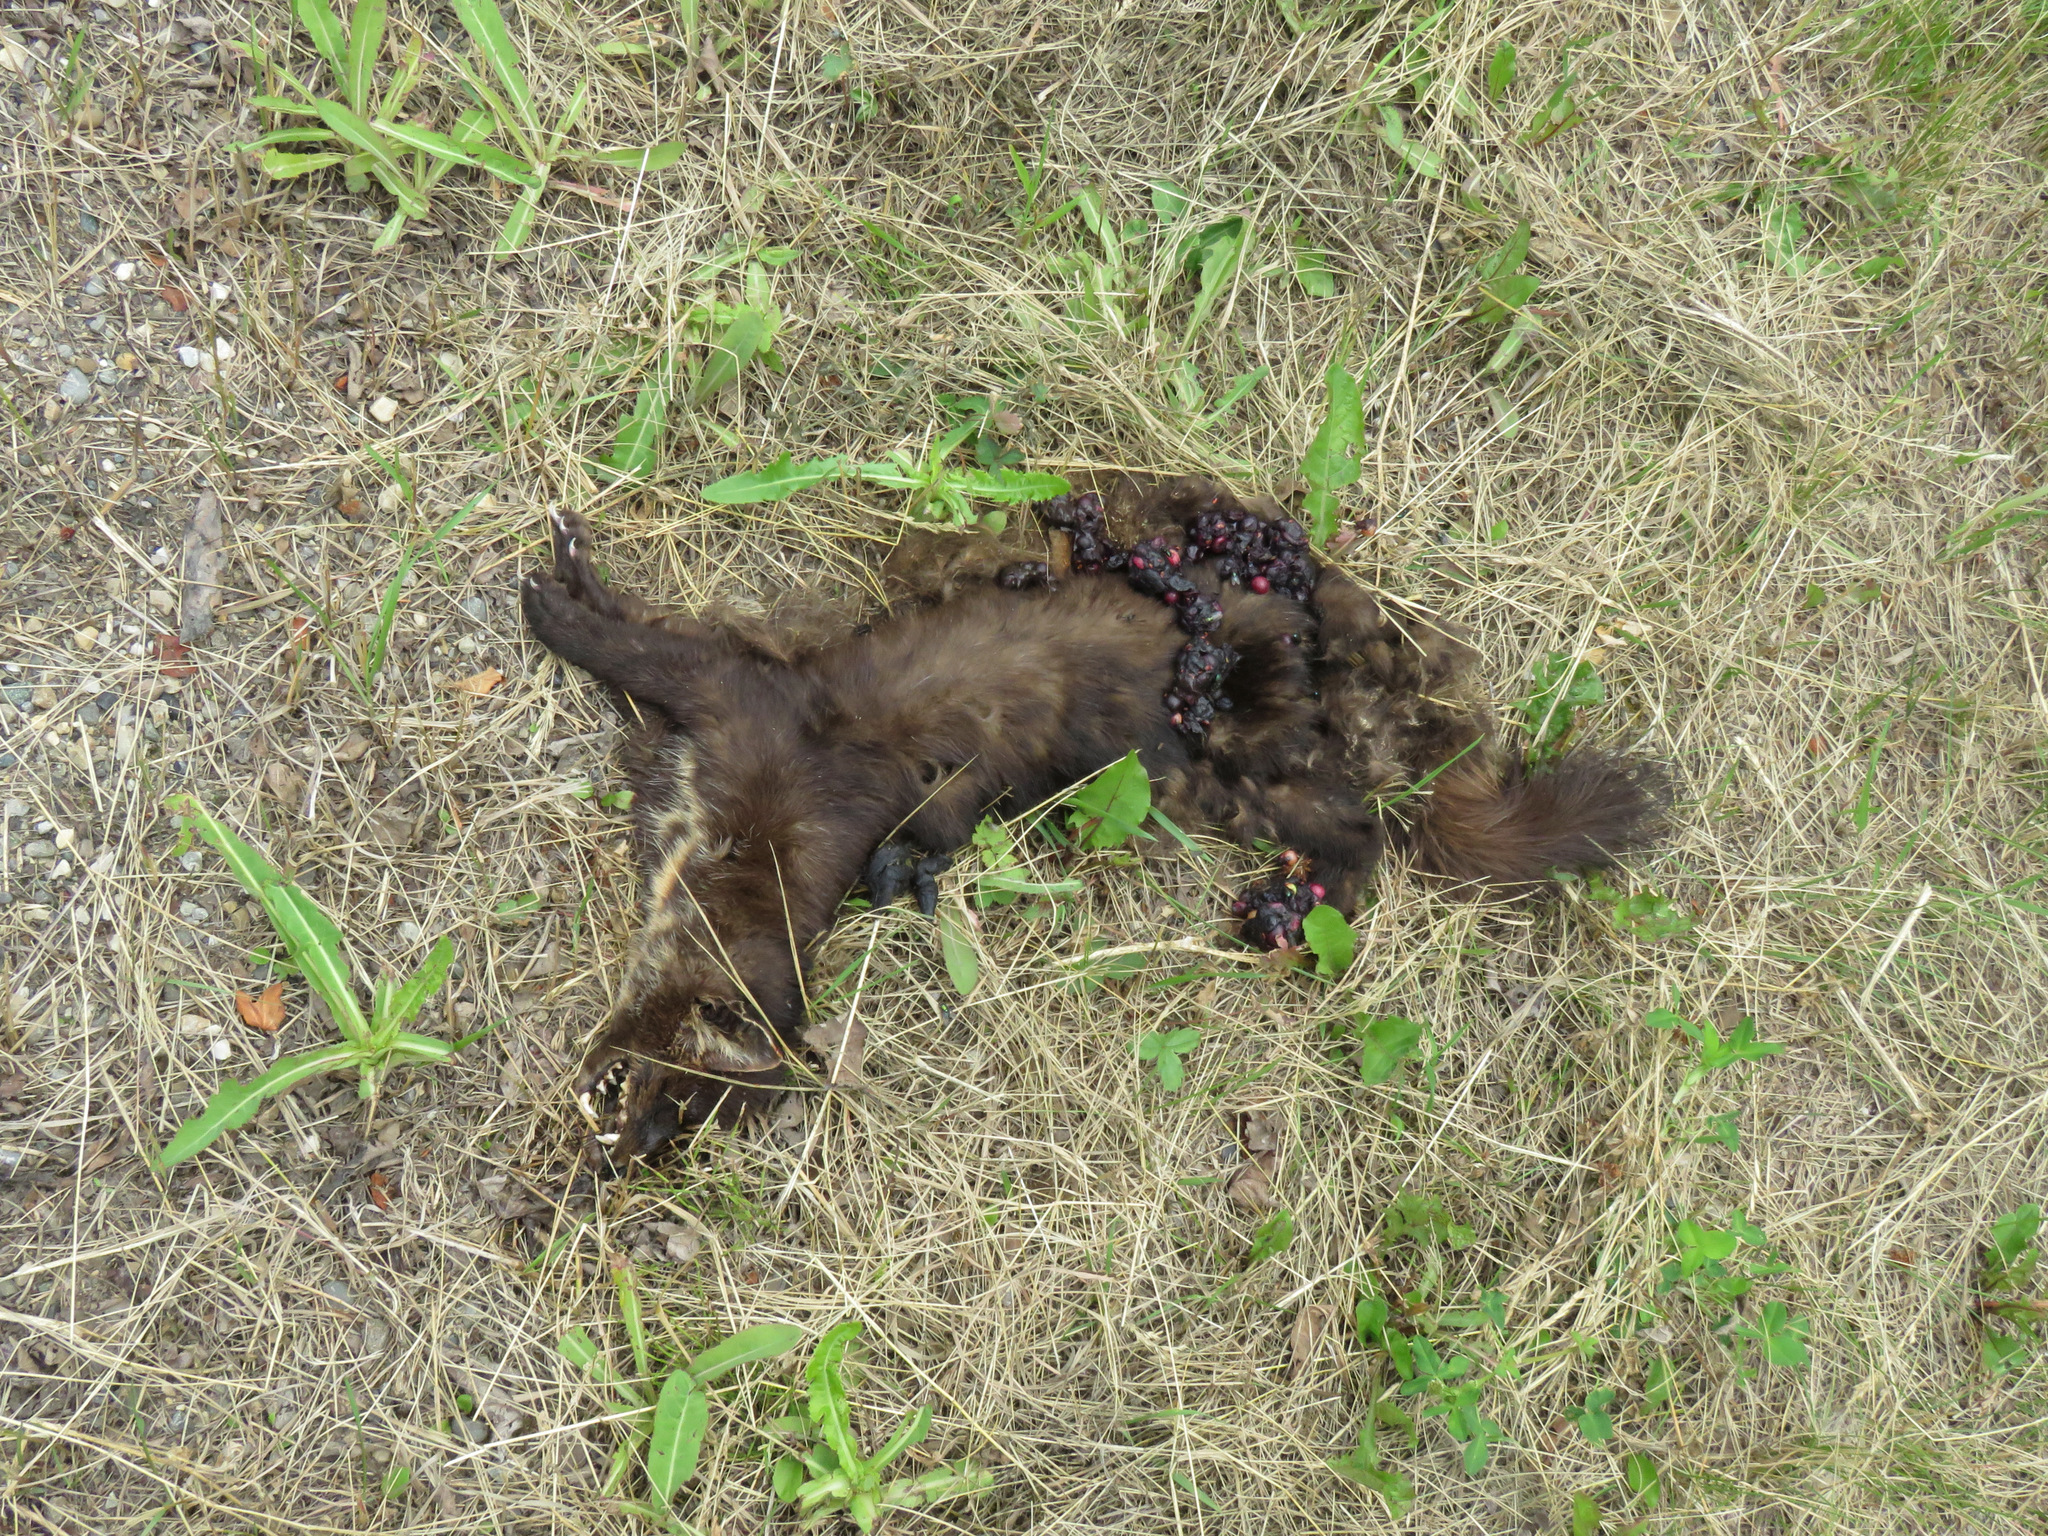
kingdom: Animalia
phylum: Chordata
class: Mammalia
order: Carnivora
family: Mustelidae
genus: Martes
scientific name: Martes americana
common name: American marten
